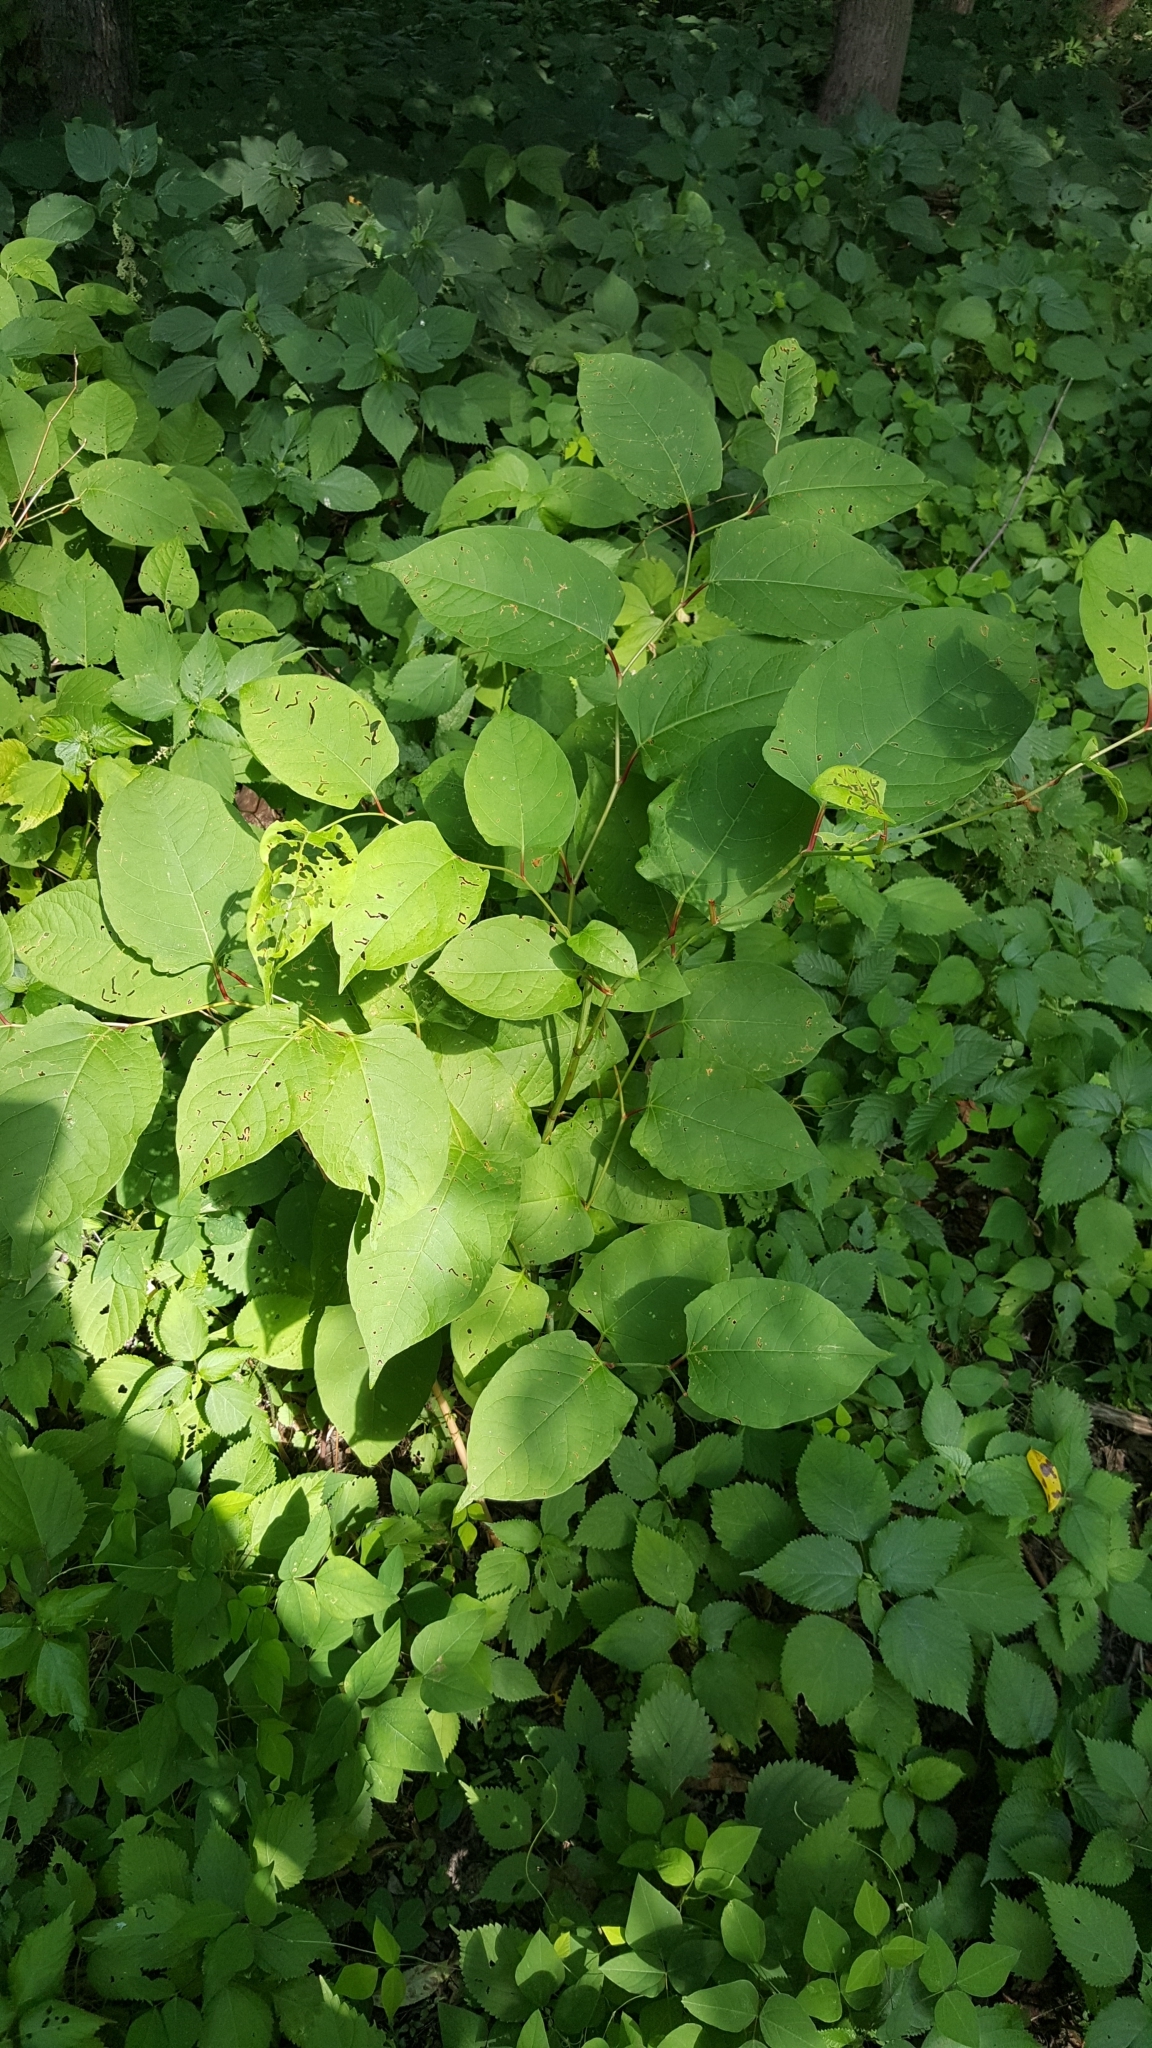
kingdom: Plantae
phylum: Tracheophyta
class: Magnoliopsida
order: Caryophyllales
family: Polygonaceae
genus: Reynoutria
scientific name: Reynoutria japonica
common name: Japanese knotweed
